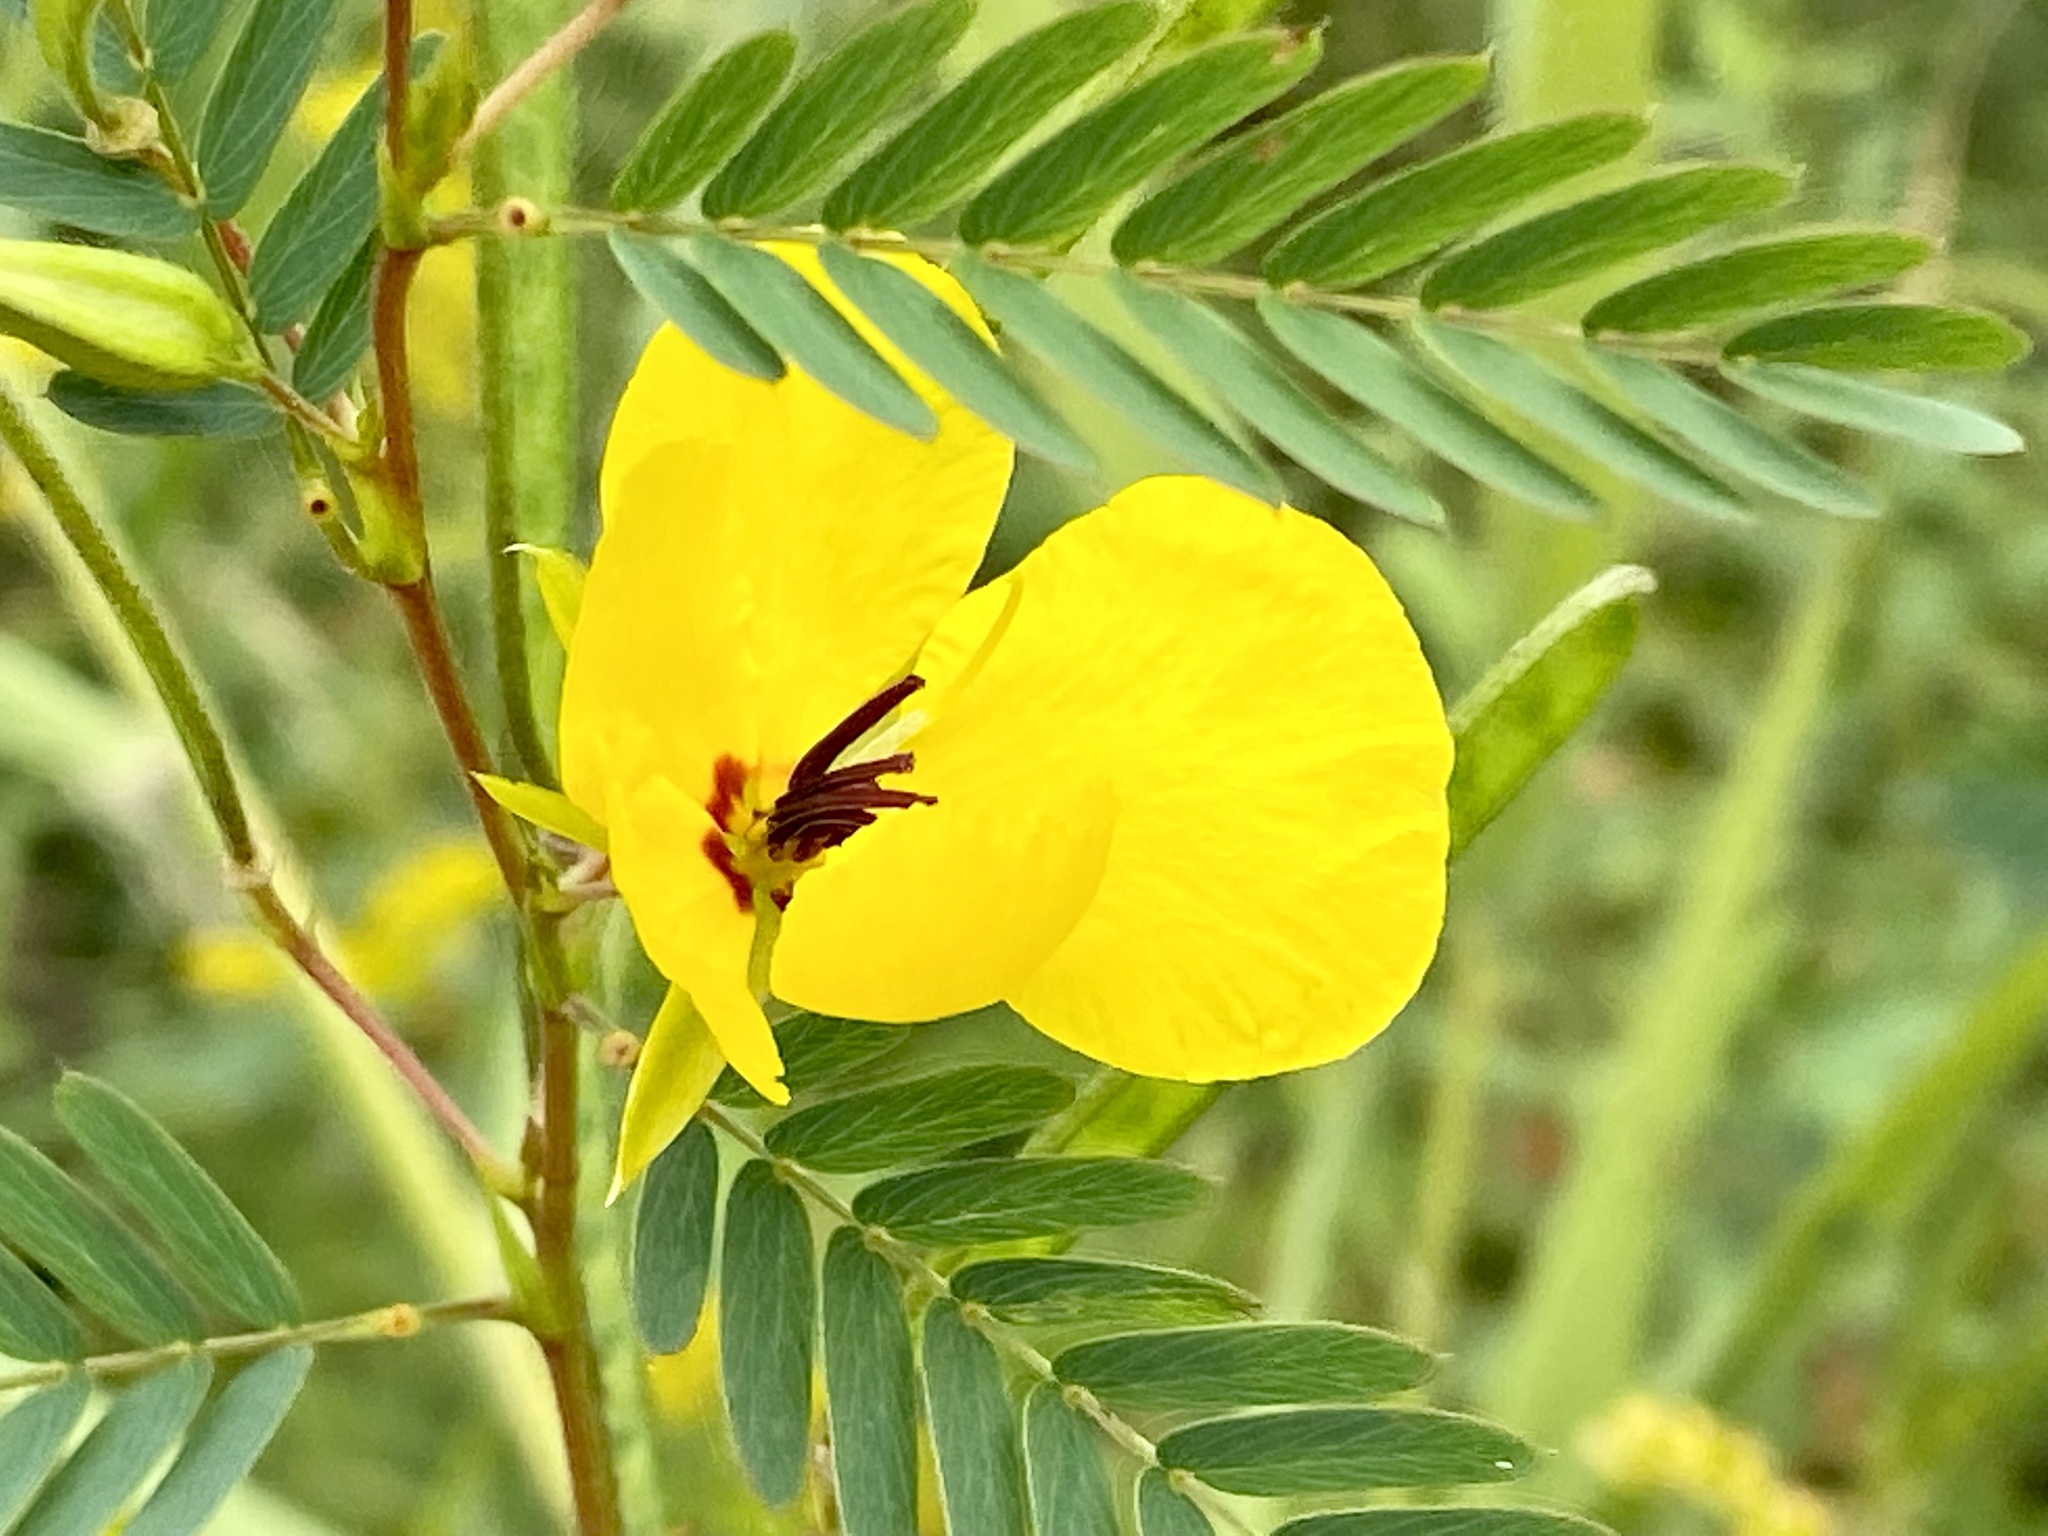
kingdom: Plantae
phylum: Tracheophyta
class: Magnoliopsida
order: Fabales
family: Fabaceae
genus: Chamaecrista
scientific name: Chamaecrista fasciculata
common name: Golden cassia
